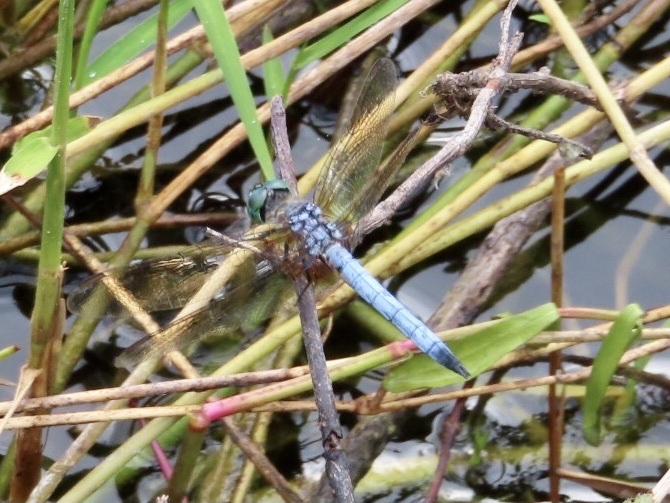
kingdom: Animalia
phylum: Arthropoda
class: Insecta
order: Odonata
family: Libellulidae
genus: Pachydiplax
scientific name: Pachydiplax longipennis
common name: Blue dasher
